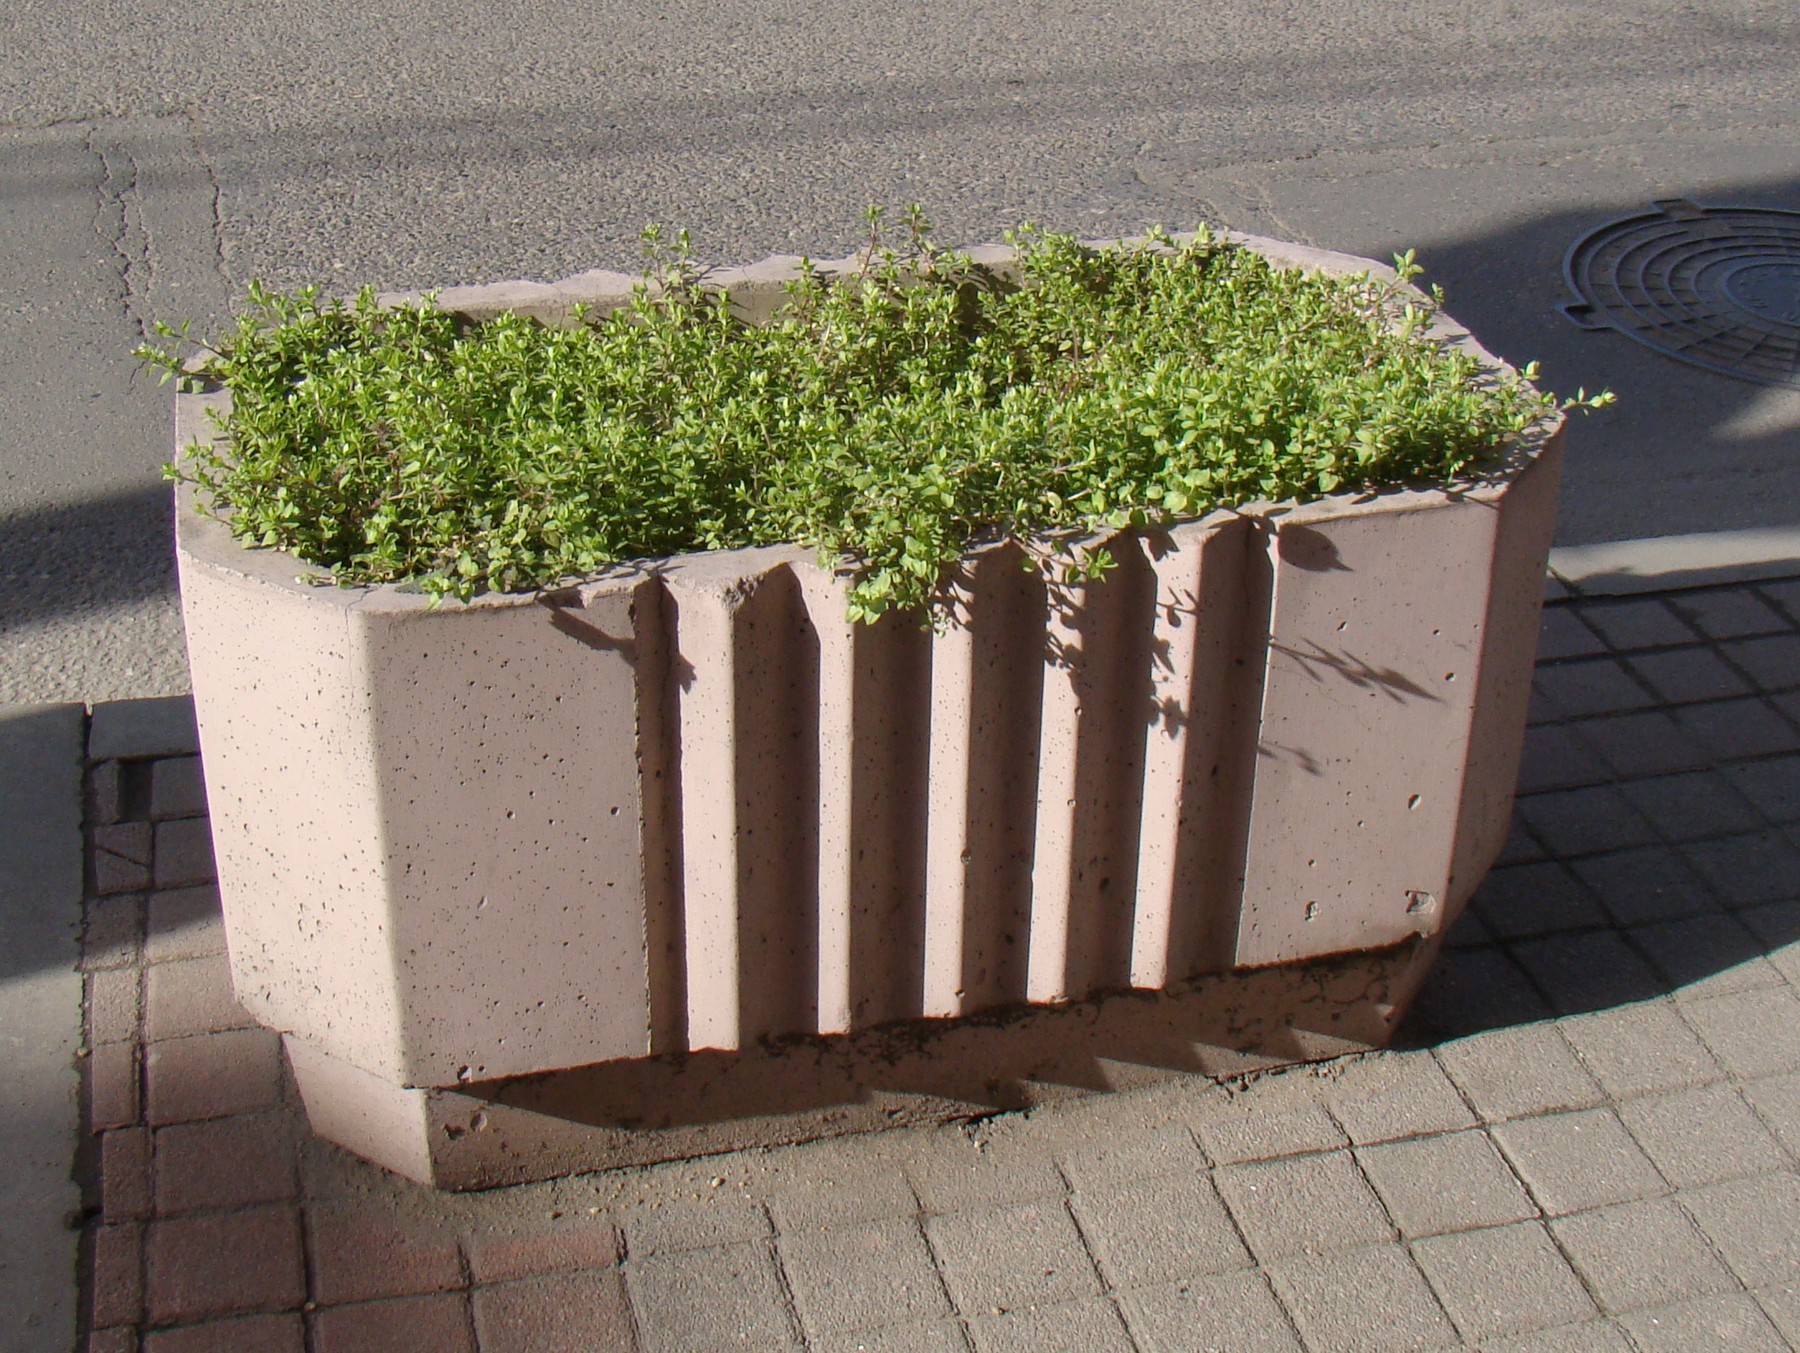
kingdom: Plantae
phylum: Tracheophyta
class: Magnoliopsida
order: Caryophyllales
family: Caryophyllaceae
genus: Stellaria
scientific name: Stellaria media
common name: Common chickweed
